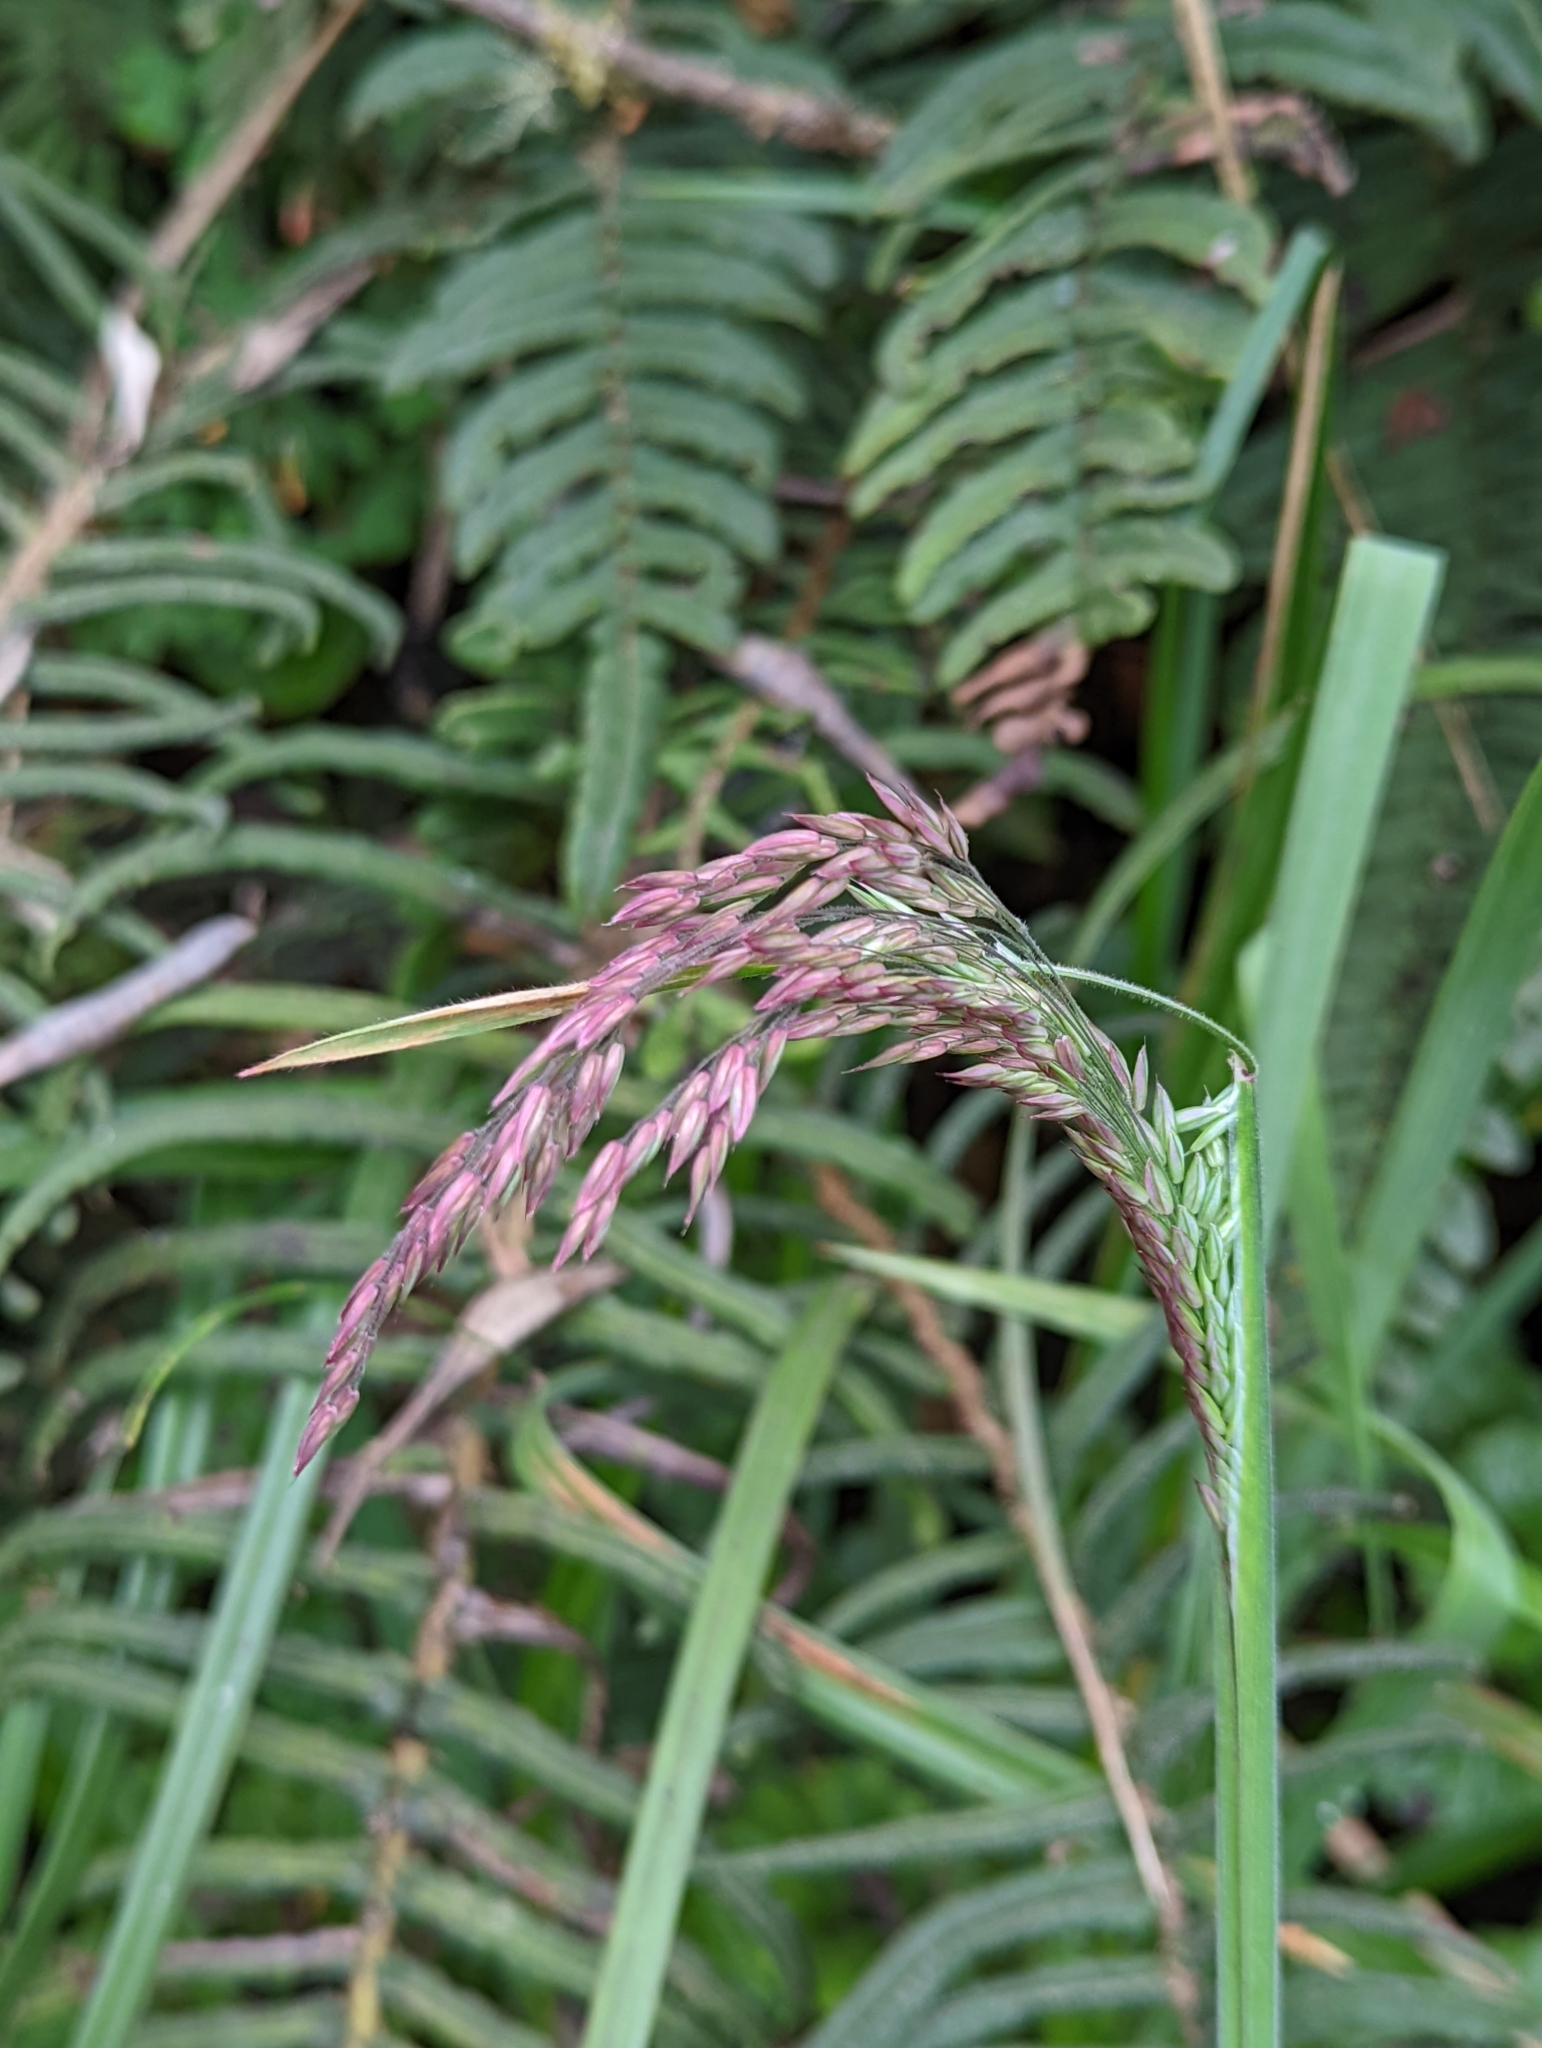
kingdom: Plantae
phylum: Tracheophyta
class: Liliopsida
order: Poales
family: Poaceae
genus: Holcus
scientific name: Holcus lanatus
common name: Yorkshire-fog
